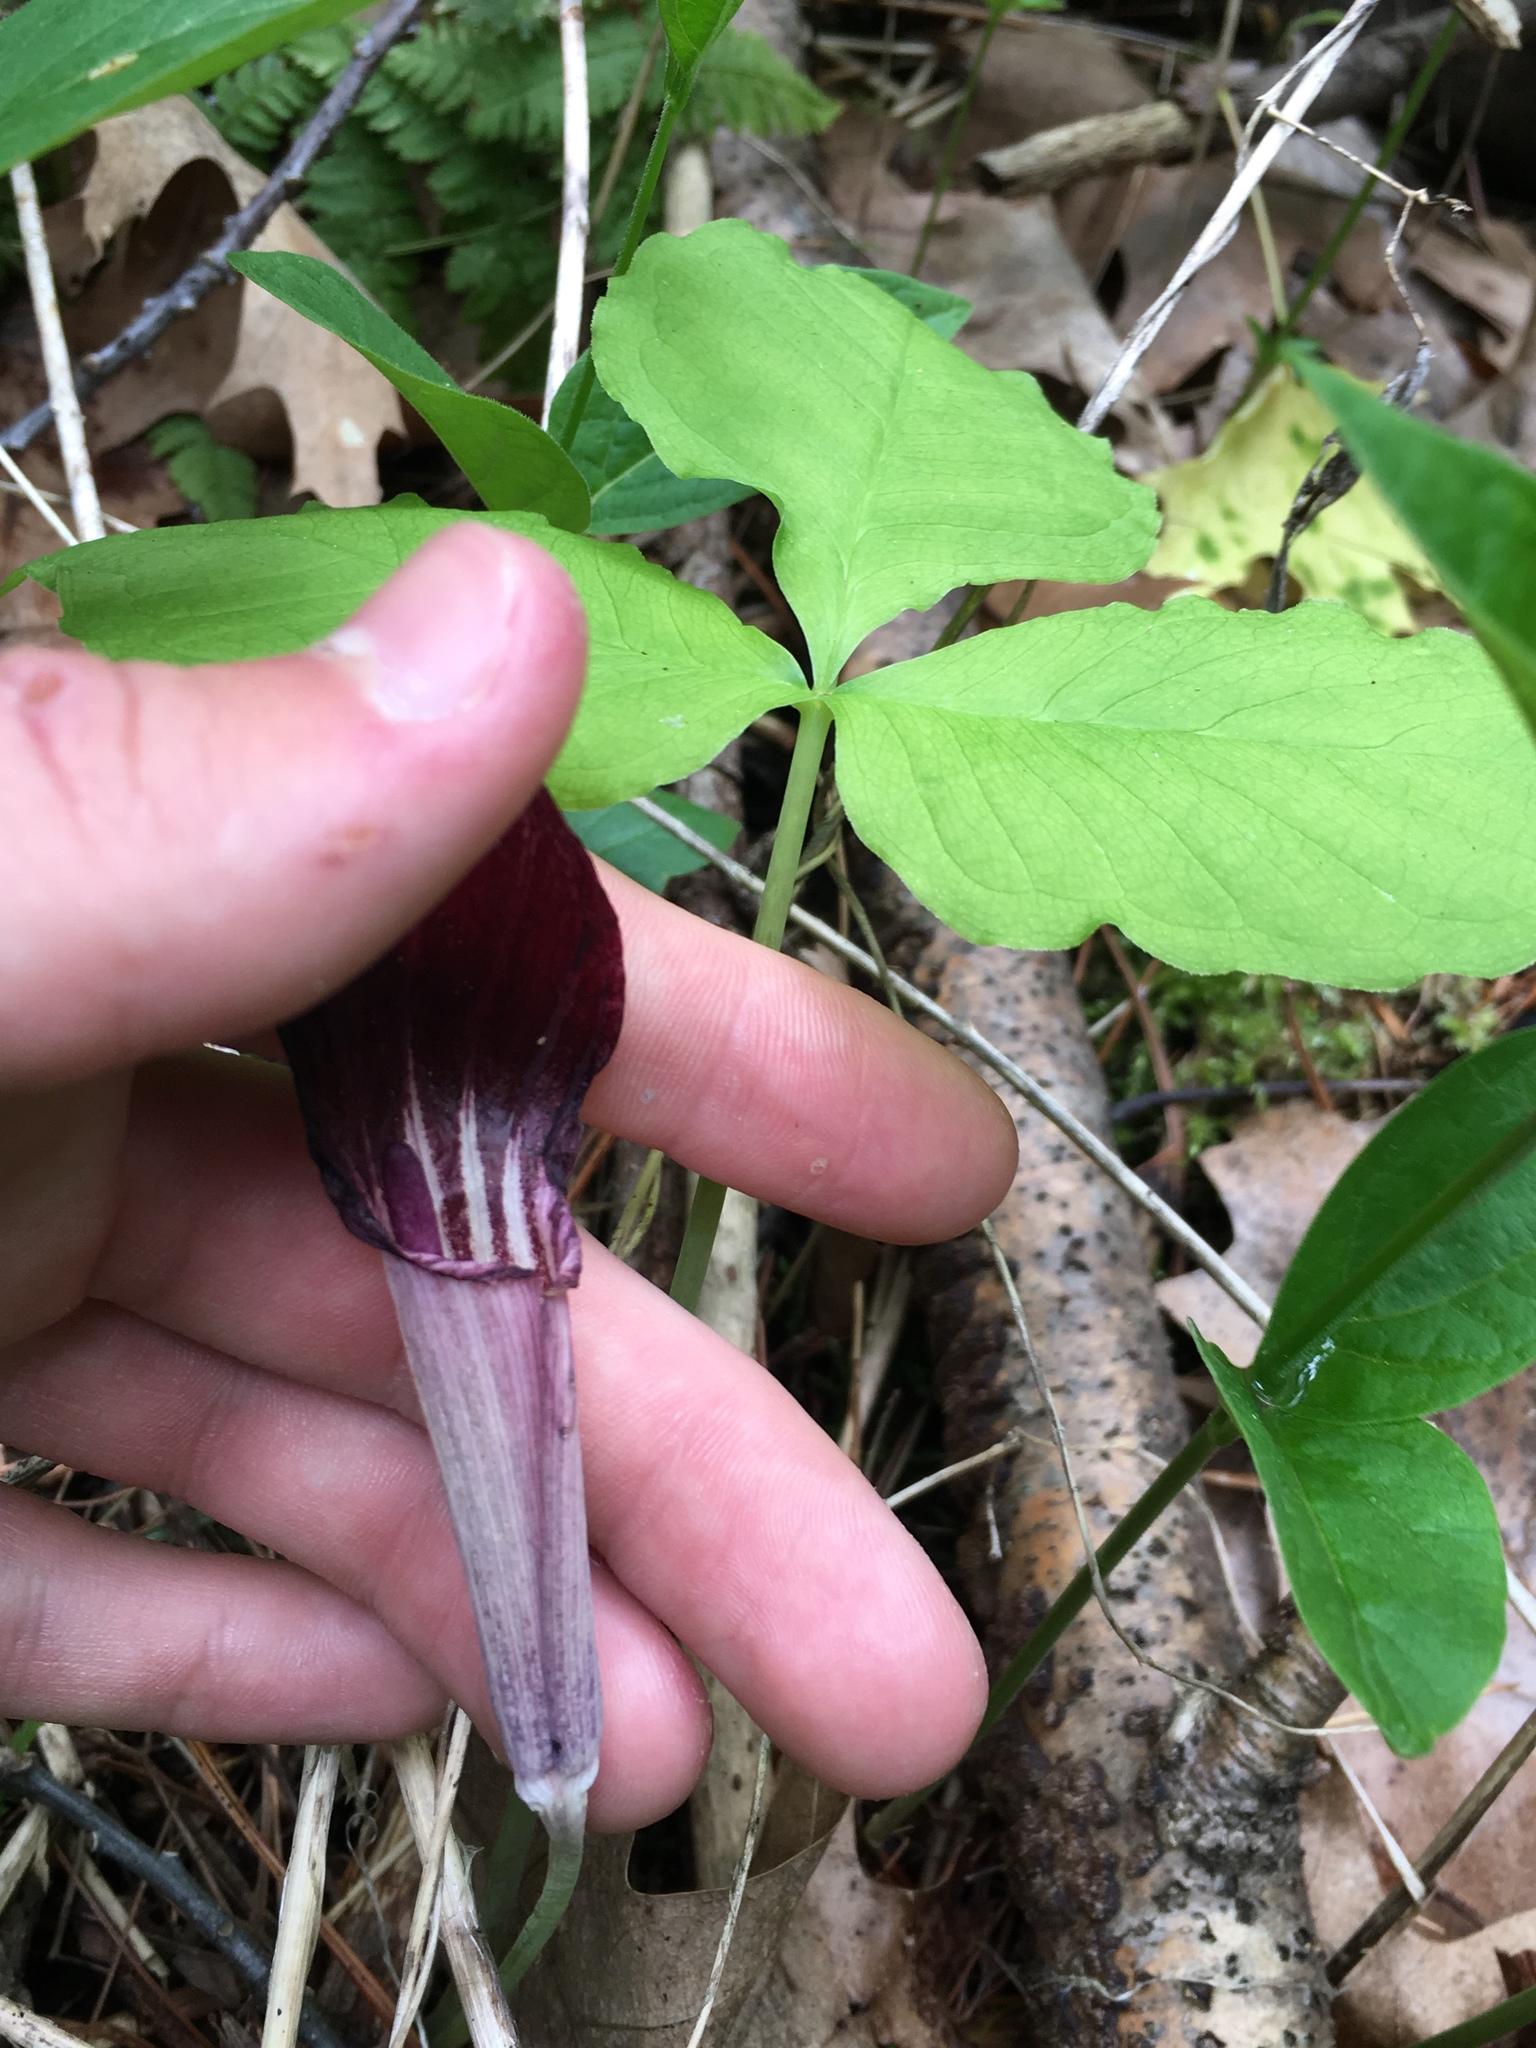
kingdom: Plantae
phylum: Tracheophyta
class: Liliopsida
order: Alismatales
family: Araceae
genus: Arisaema
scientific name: Arisaema triphyllum
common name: Jack-in-the-pulpit
